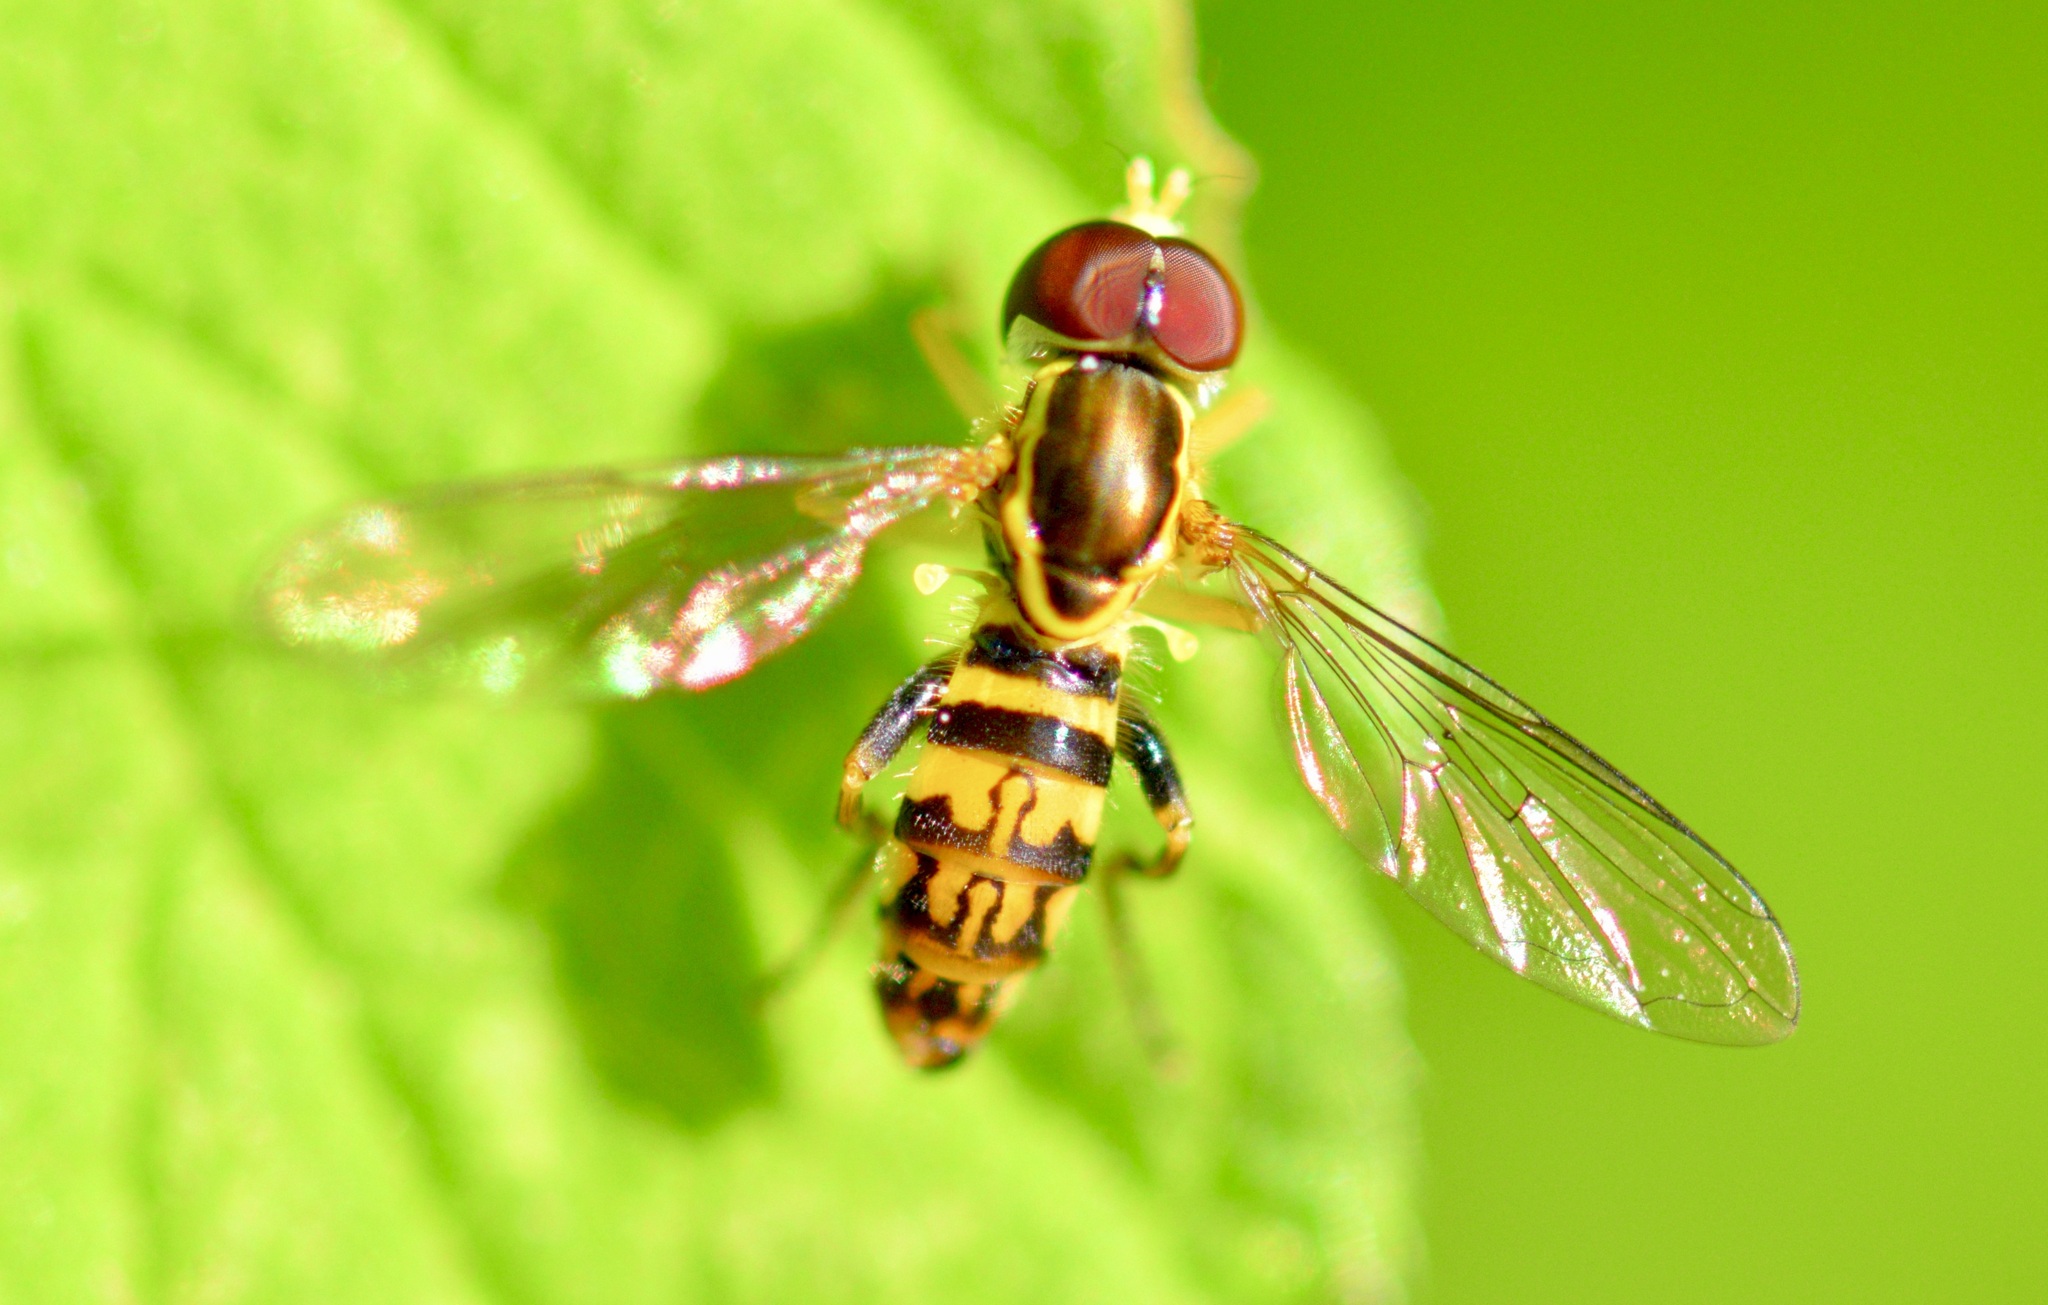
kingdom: Animalia
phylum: Arthropoda
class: Insecta
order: Diptera
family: Syrphidae
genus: Toxomerus
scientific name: Toxomerus geminatus
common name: Eastern calligrapher
